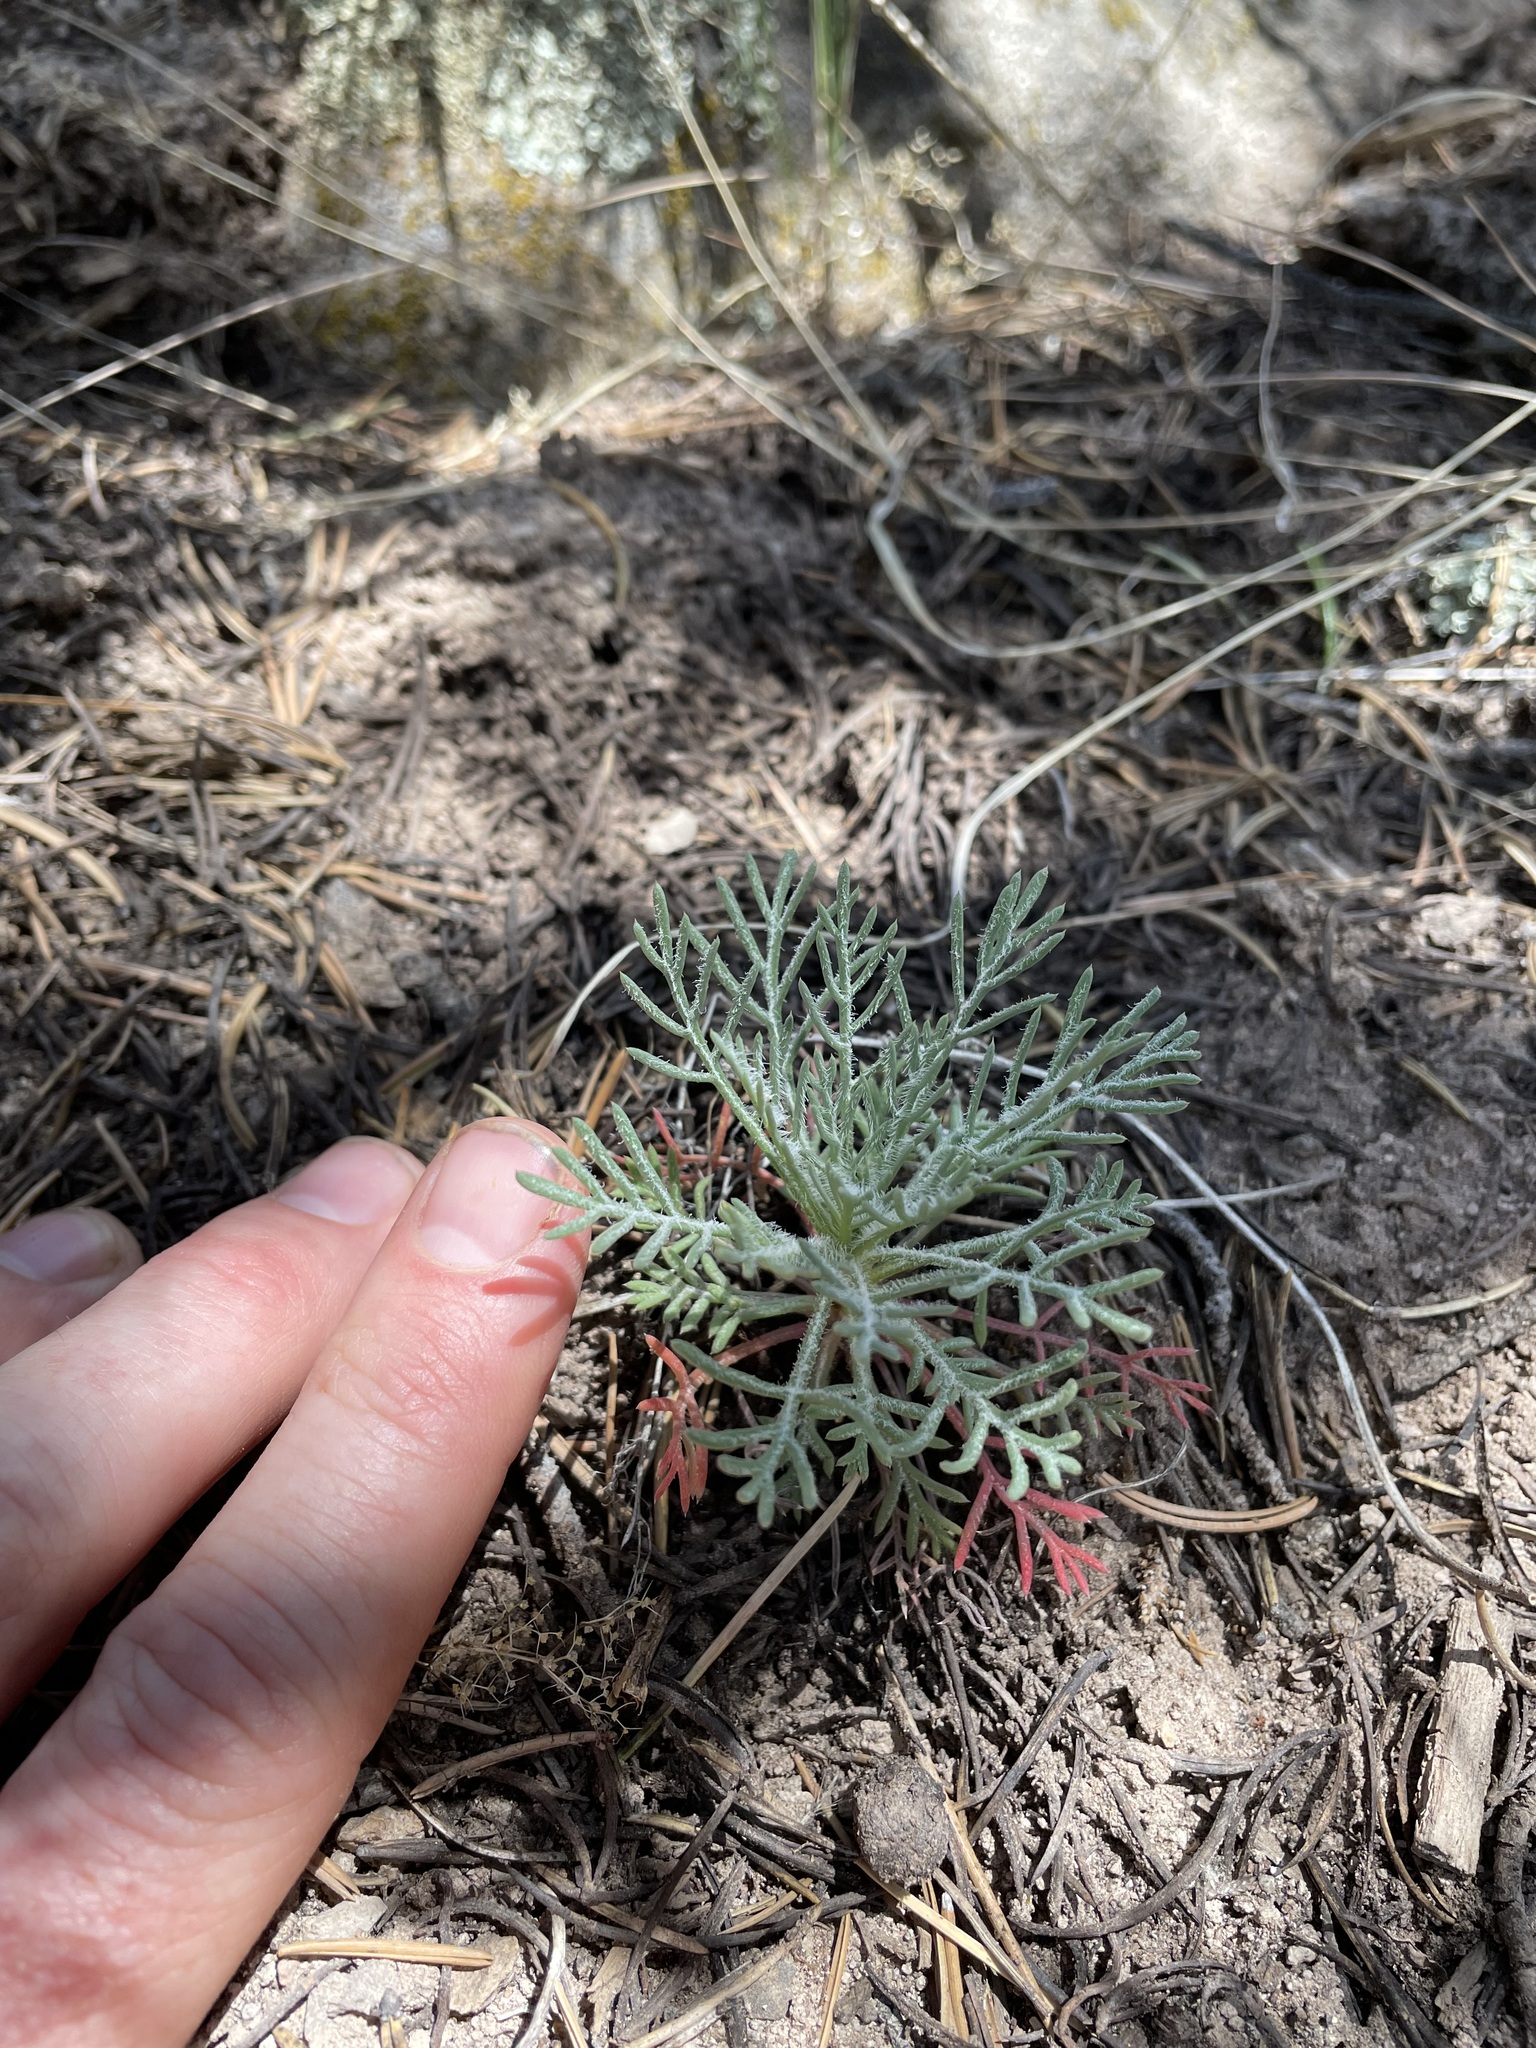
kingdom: Plantae
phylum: Tracheophyta
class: Magnoliopsida
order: Ericales
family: Polemoniaceae
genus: Ipomopsis
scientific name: Ipomopsis aggregata
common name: Scarlet gilia
